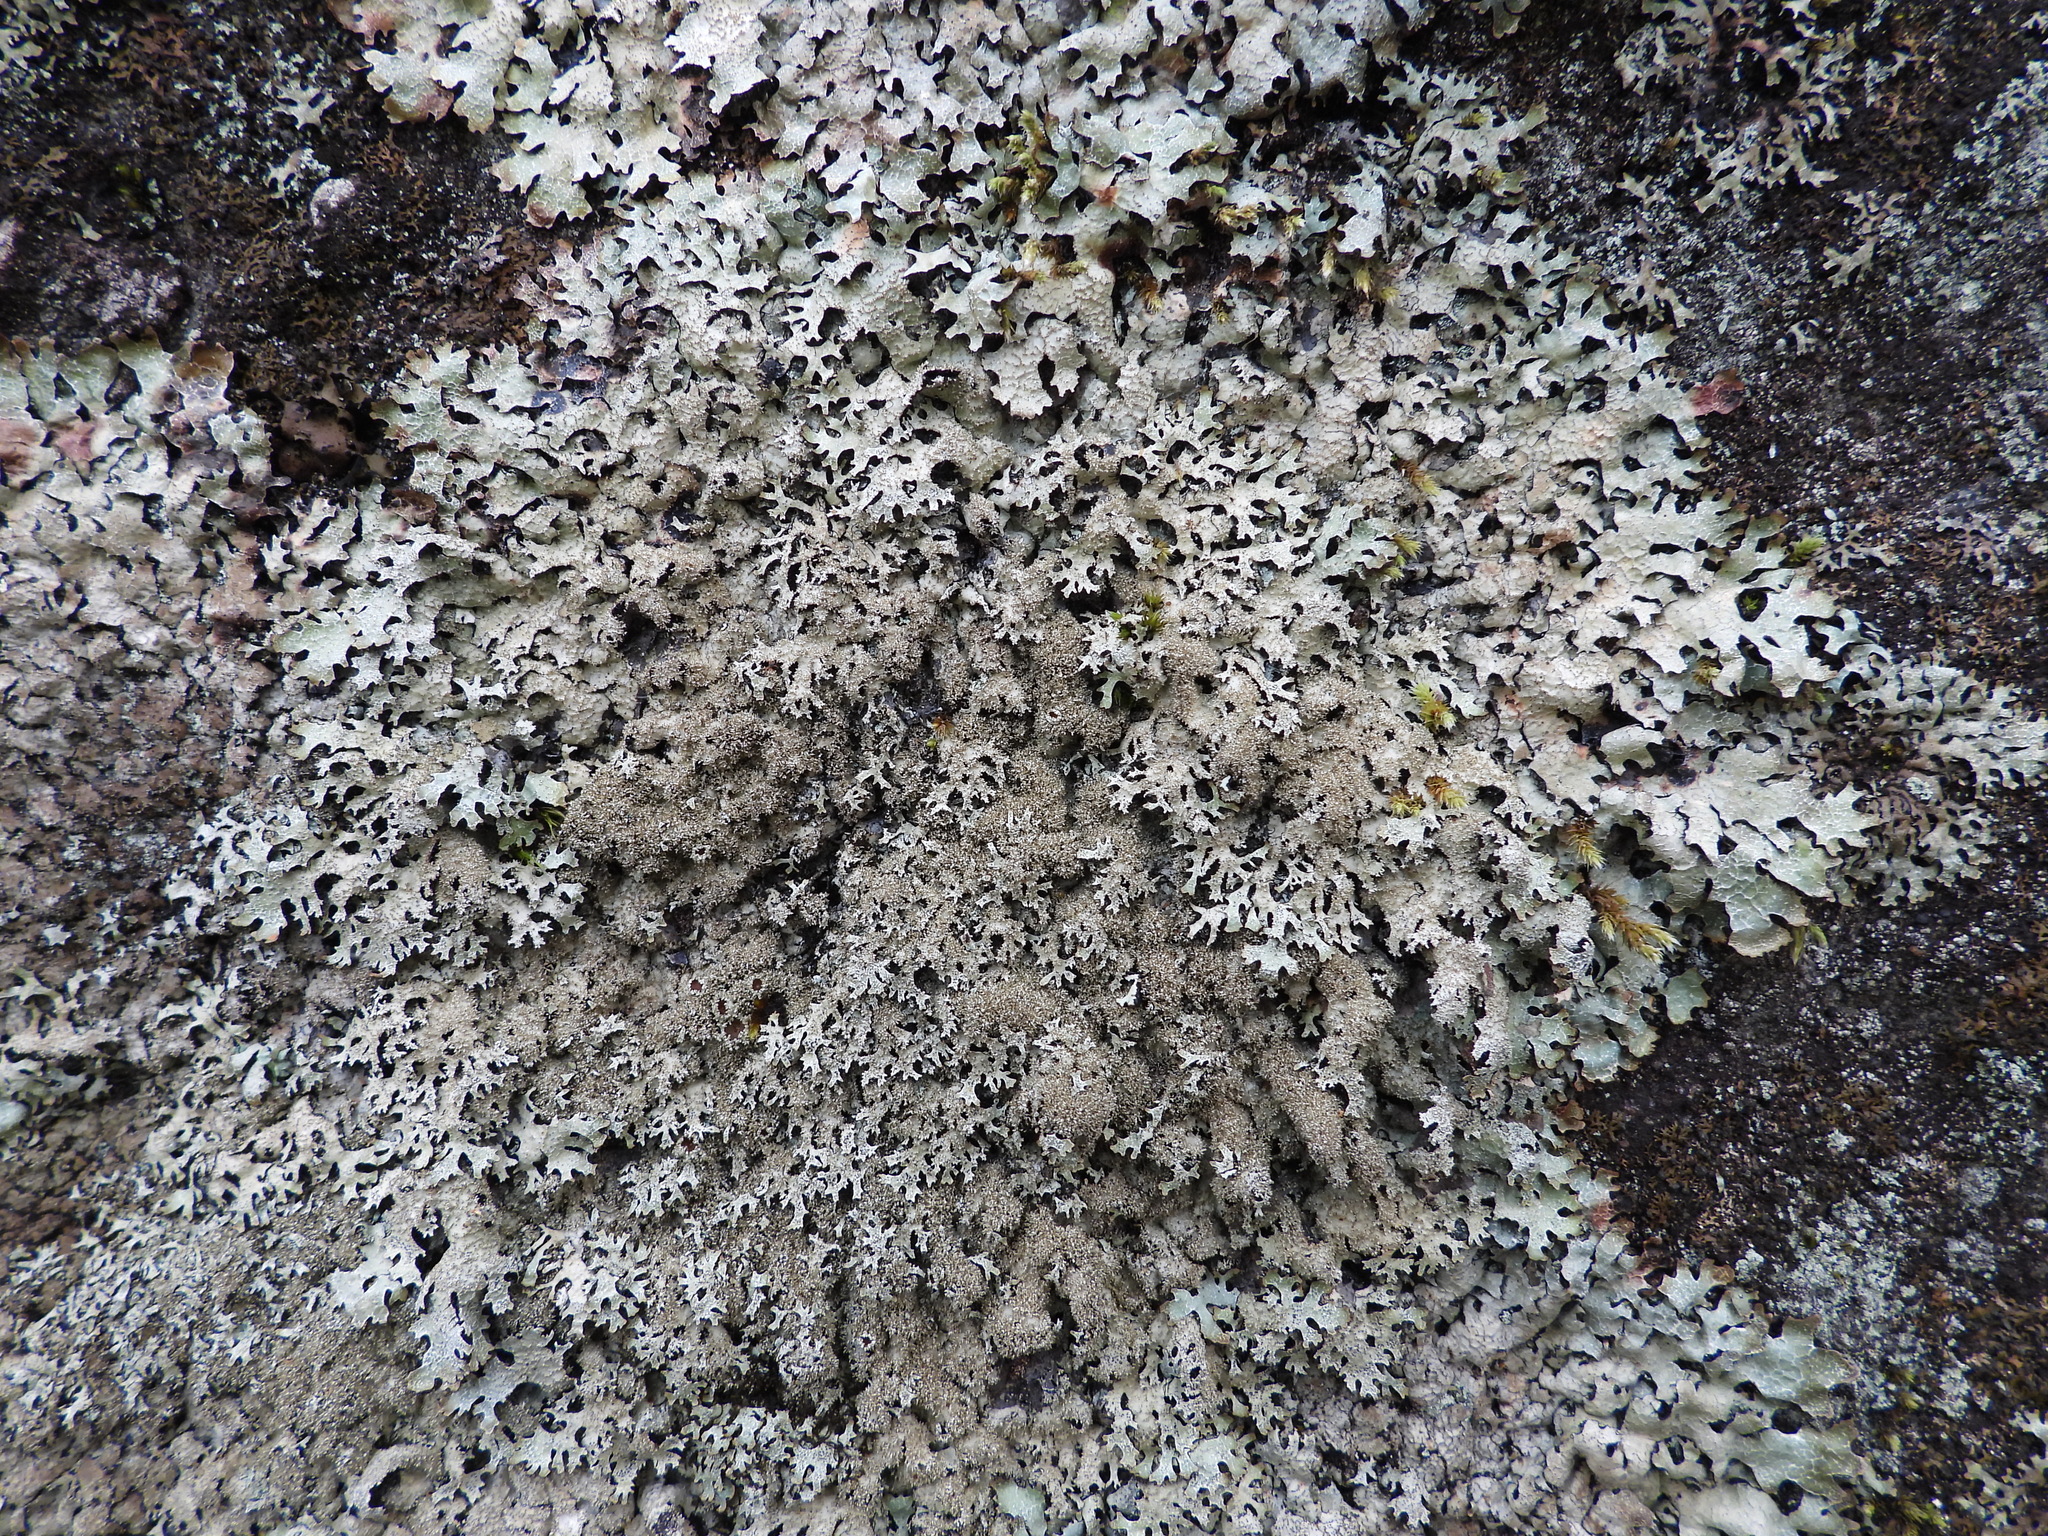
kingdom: Fungi
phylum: Ascomycota
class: Lecanoromycetes
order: Lecanorales
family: Parmeliaceae
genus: Parmelia
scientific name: Parmelia saxatilis
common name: Salted shield lichen
